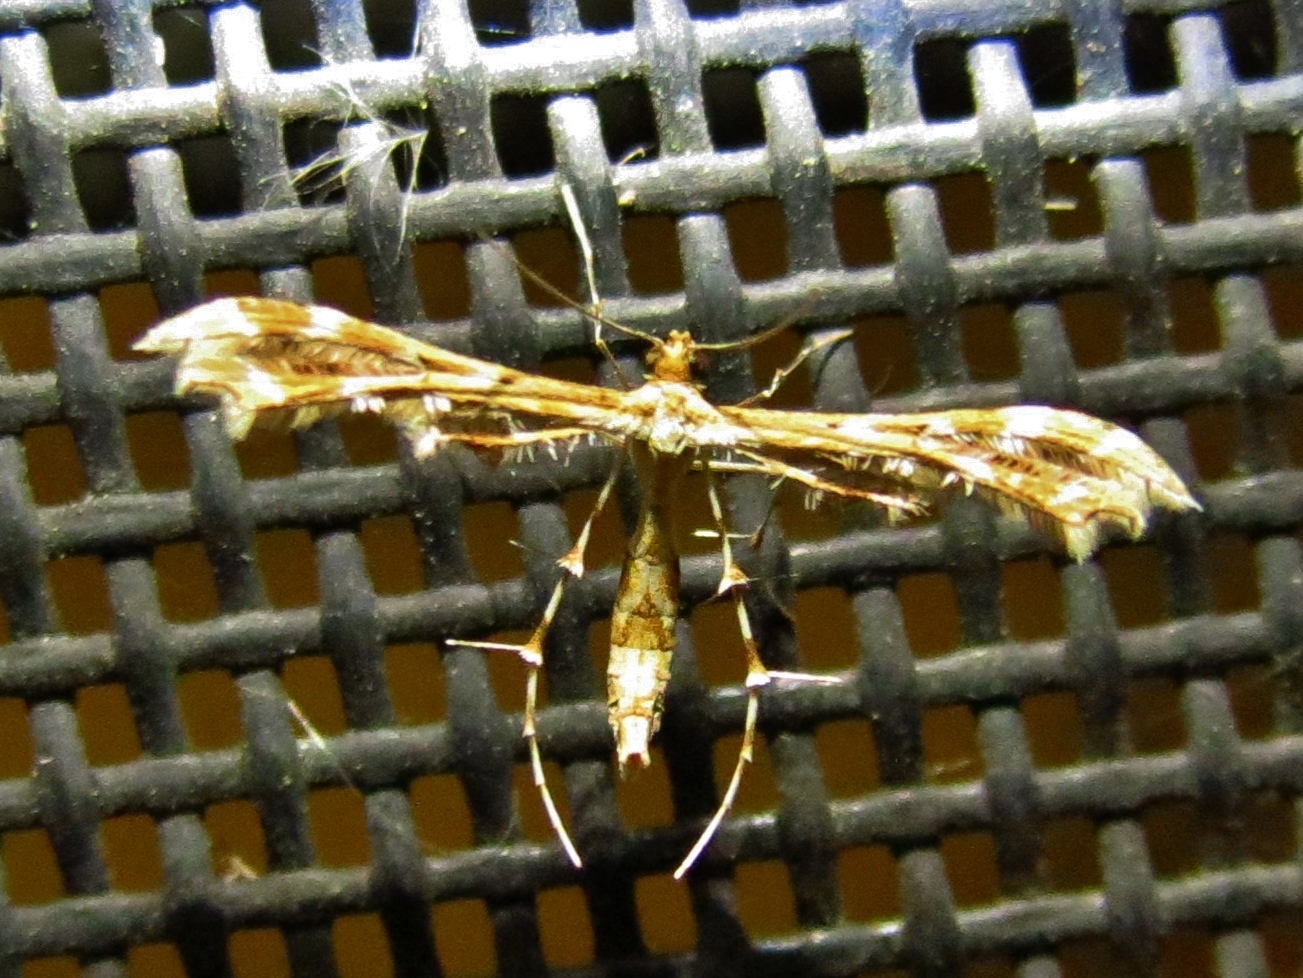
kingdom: Animalia
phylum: Arthropoda
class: Insecta
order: Lepidoptera
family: Pterophoridae
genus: Sphenarches
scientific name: Sphenarches anisodactylus
